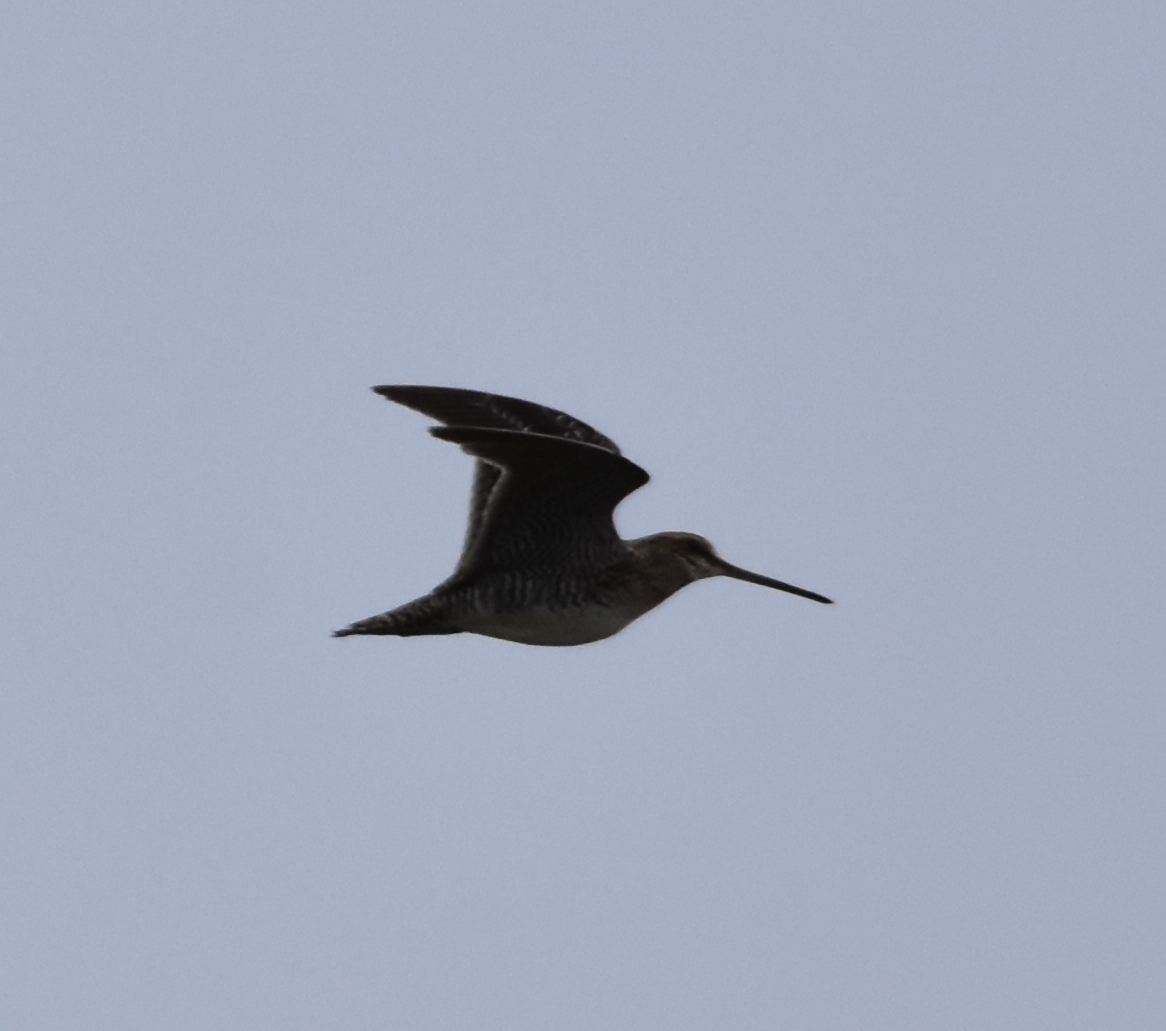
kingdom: Animalia
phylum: Chordata
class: Aves
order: Charadriiformes
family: Scolopacidae
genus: Gallinago
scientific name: Gallinago delicata
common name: Wilson's snipe
